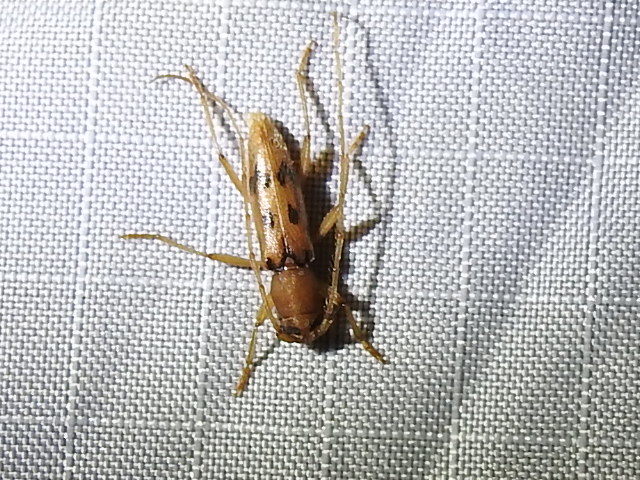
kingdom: Animalia
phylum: Arthropoda
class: Insecta
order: Coleoptera
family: Cerambycidae
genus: Achryson
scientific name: Achryson surinamum
